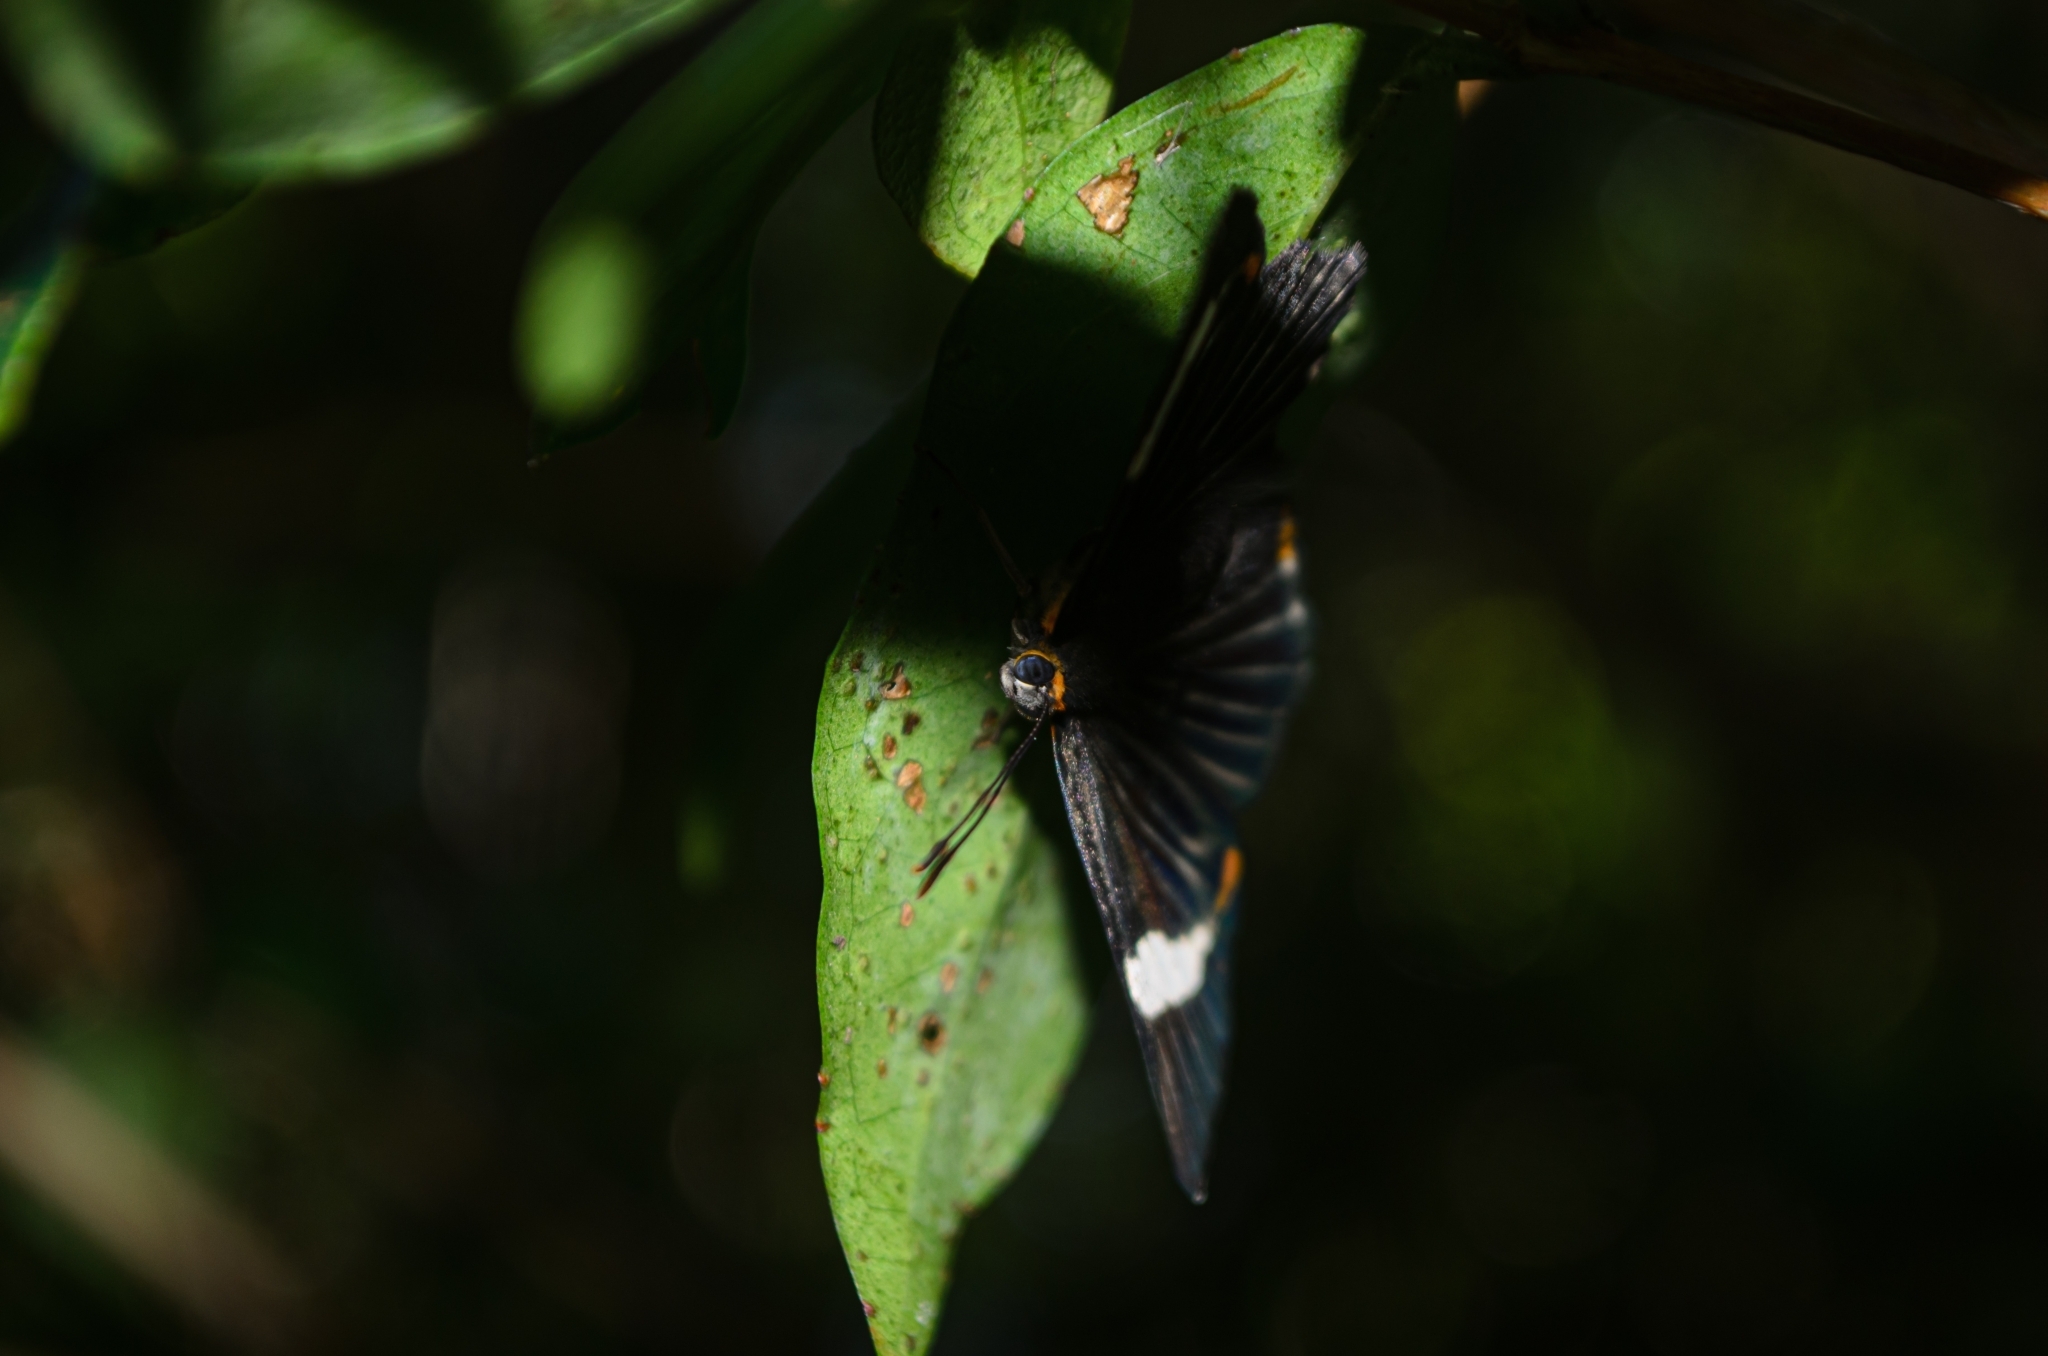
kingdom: Animalia
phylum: Arthropoda
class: Insecta
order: Lepidoptera
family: Riodinidae
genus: Riodina
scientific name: Riodina lycisca
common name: Lycisca metalmark
